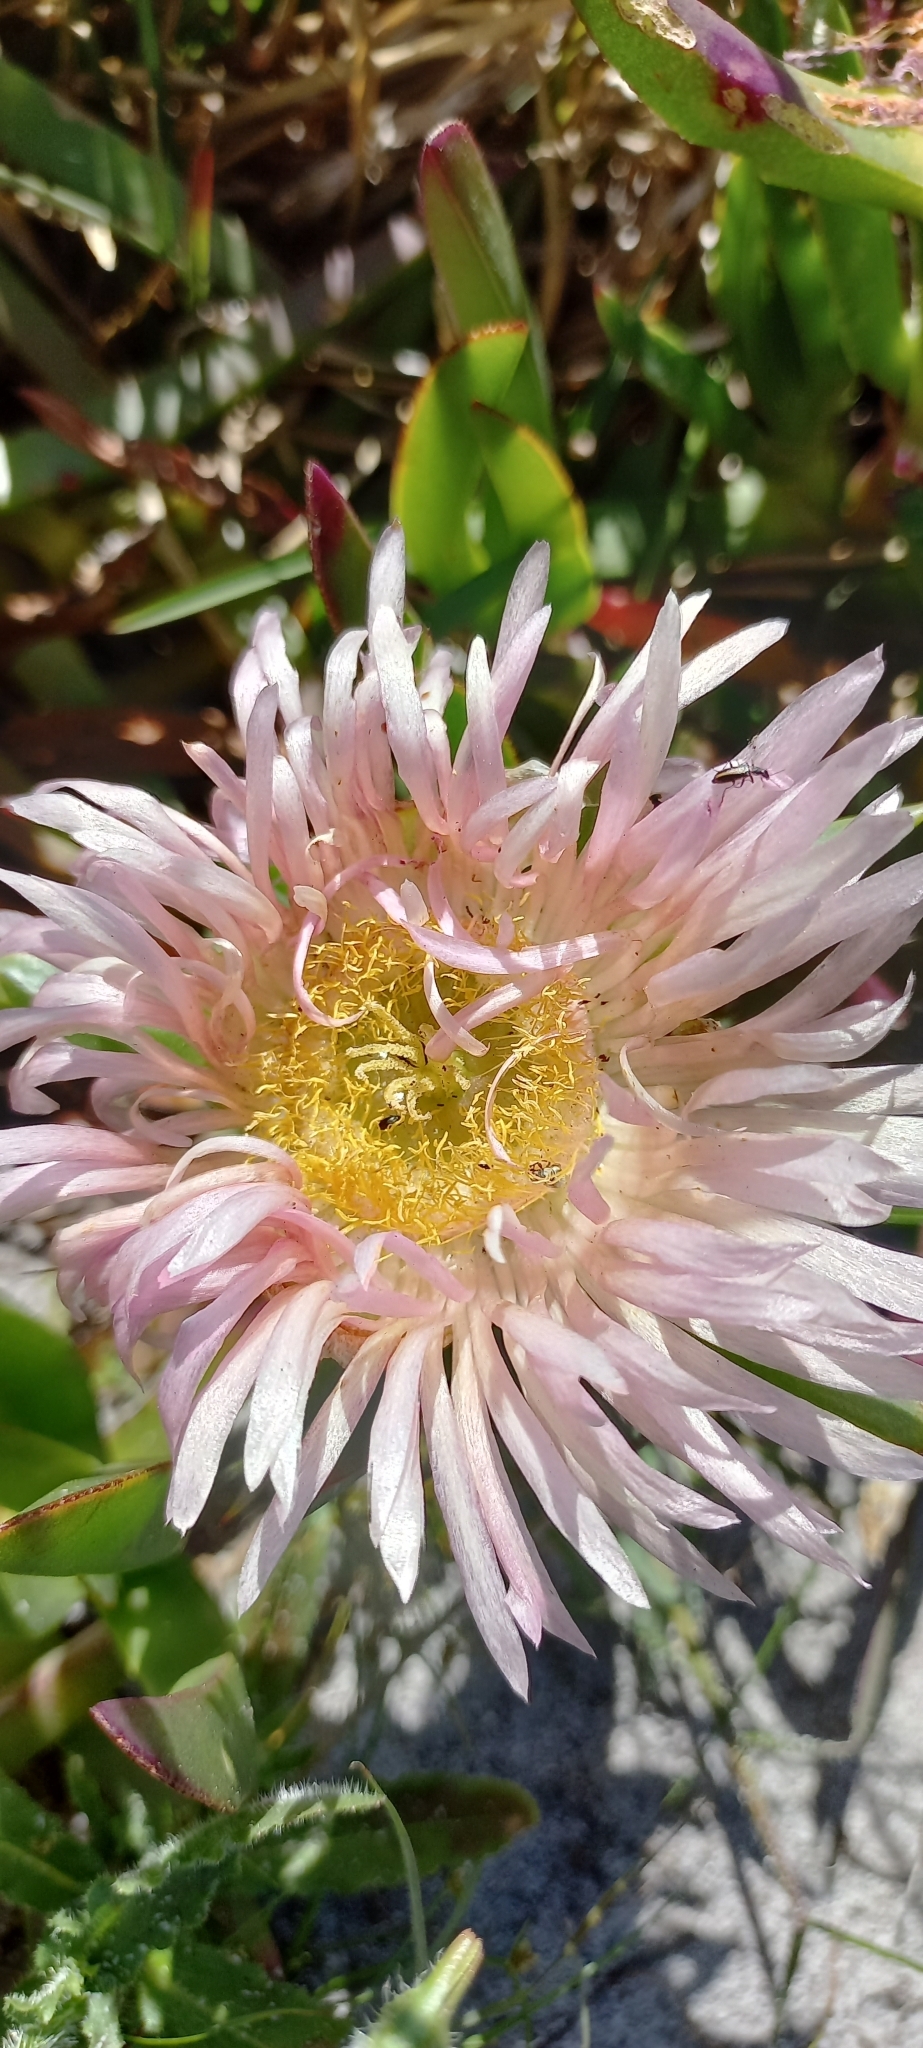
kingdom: Plantae
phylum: Tracheophyta
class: Magnoliopsida
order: Caryophyllales
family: Aizoaceae
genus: Carpobrotus
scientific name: Carpobrotus edulis
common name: Hottentot-fig
